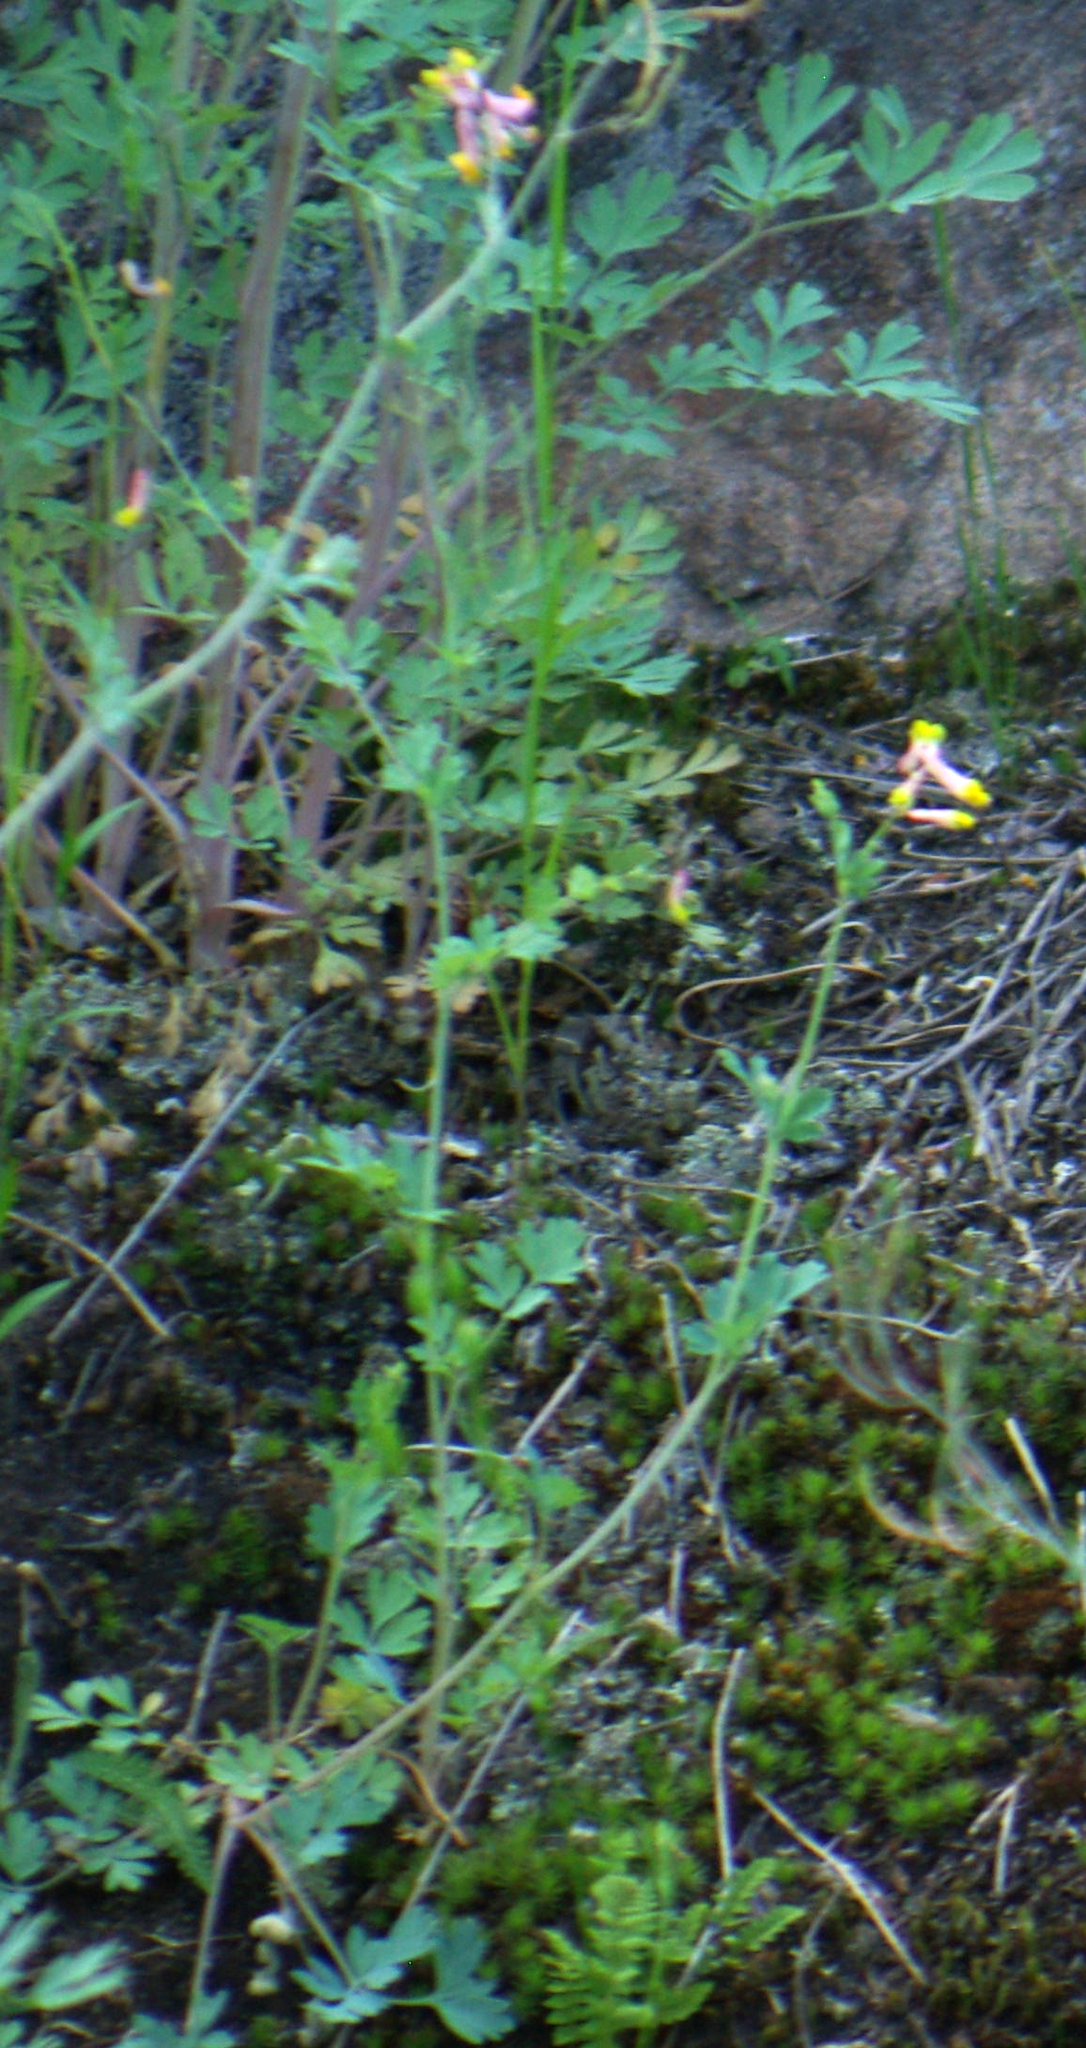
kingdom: Plantae
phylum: Tracheophyta
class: Magnoliopsida
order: Ranunculales
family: Papaveraceae
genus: Capnoides
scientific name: Capnoides sempervirens
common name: Rock harlequin
